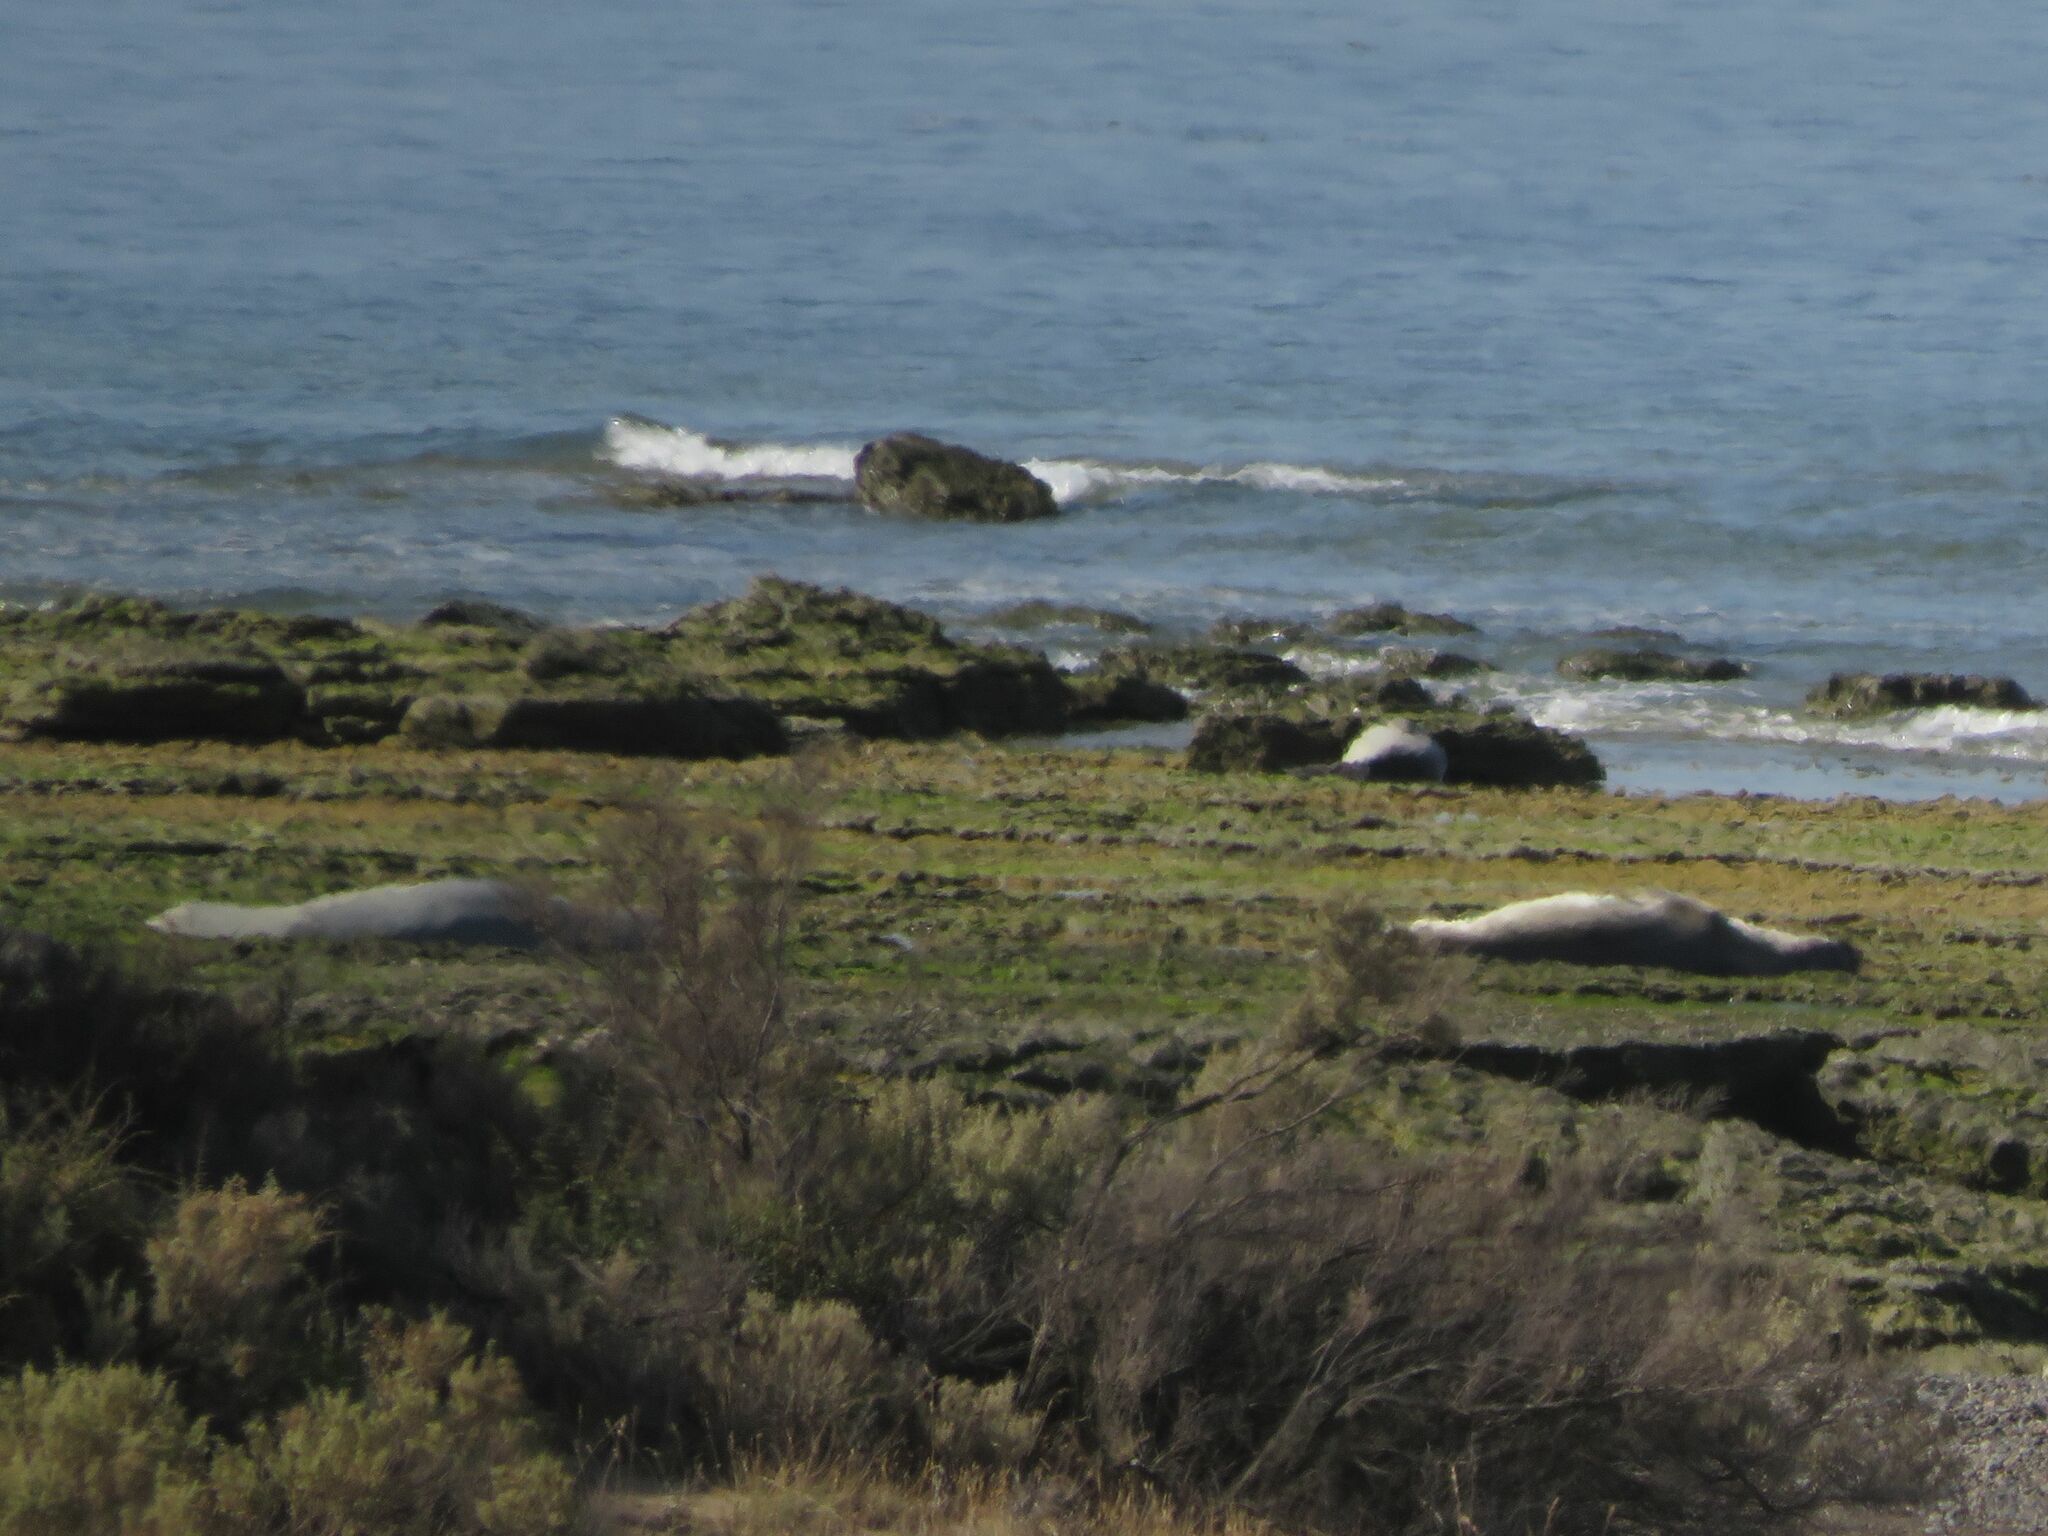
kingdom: Animalia
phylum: Chordata
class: Mammalia
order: Carnivora
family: Phocidae
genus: Mirounga
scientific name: Mirounga leonina
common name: Southern elephant seal
